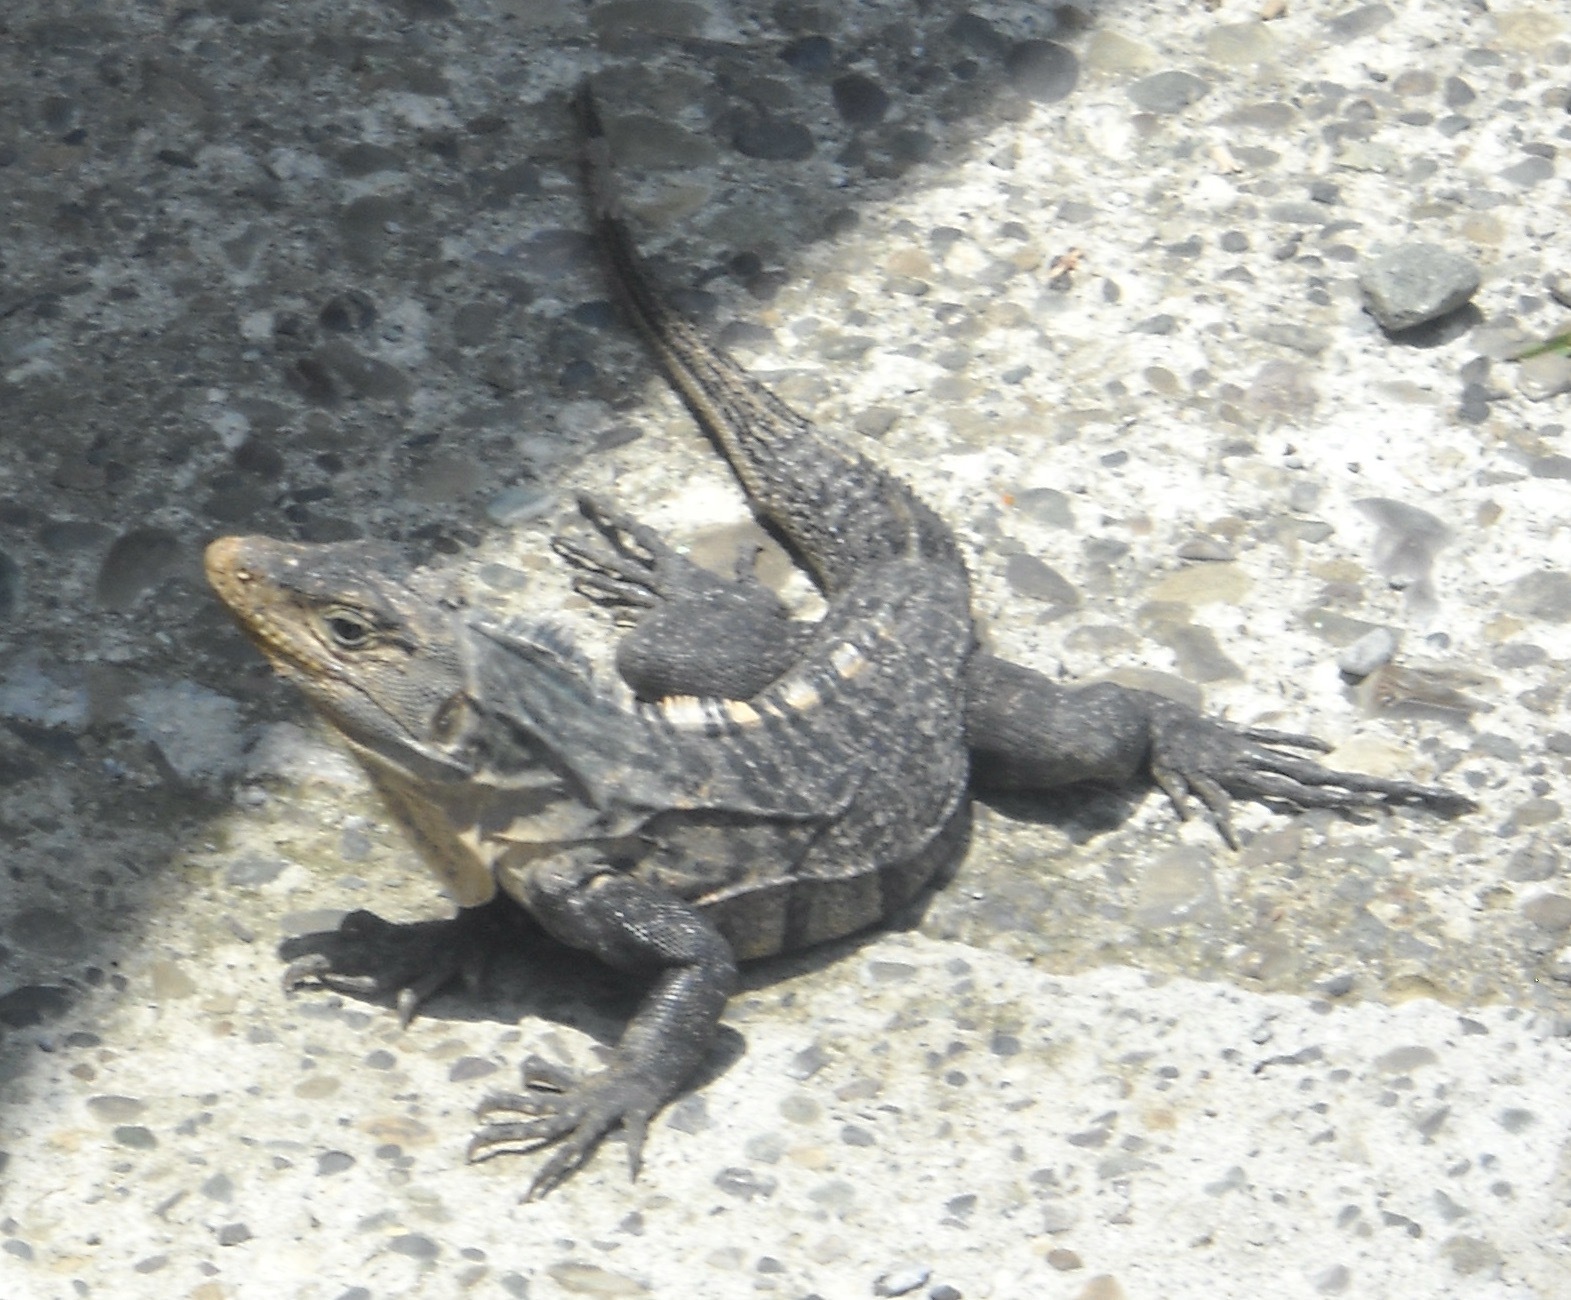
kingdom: Animalia
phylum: Chordata
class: Squamata
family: Iguanidae
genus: Ctenosaura
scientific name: Ctenosaura similis
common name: Black spiny-tailed iguana
